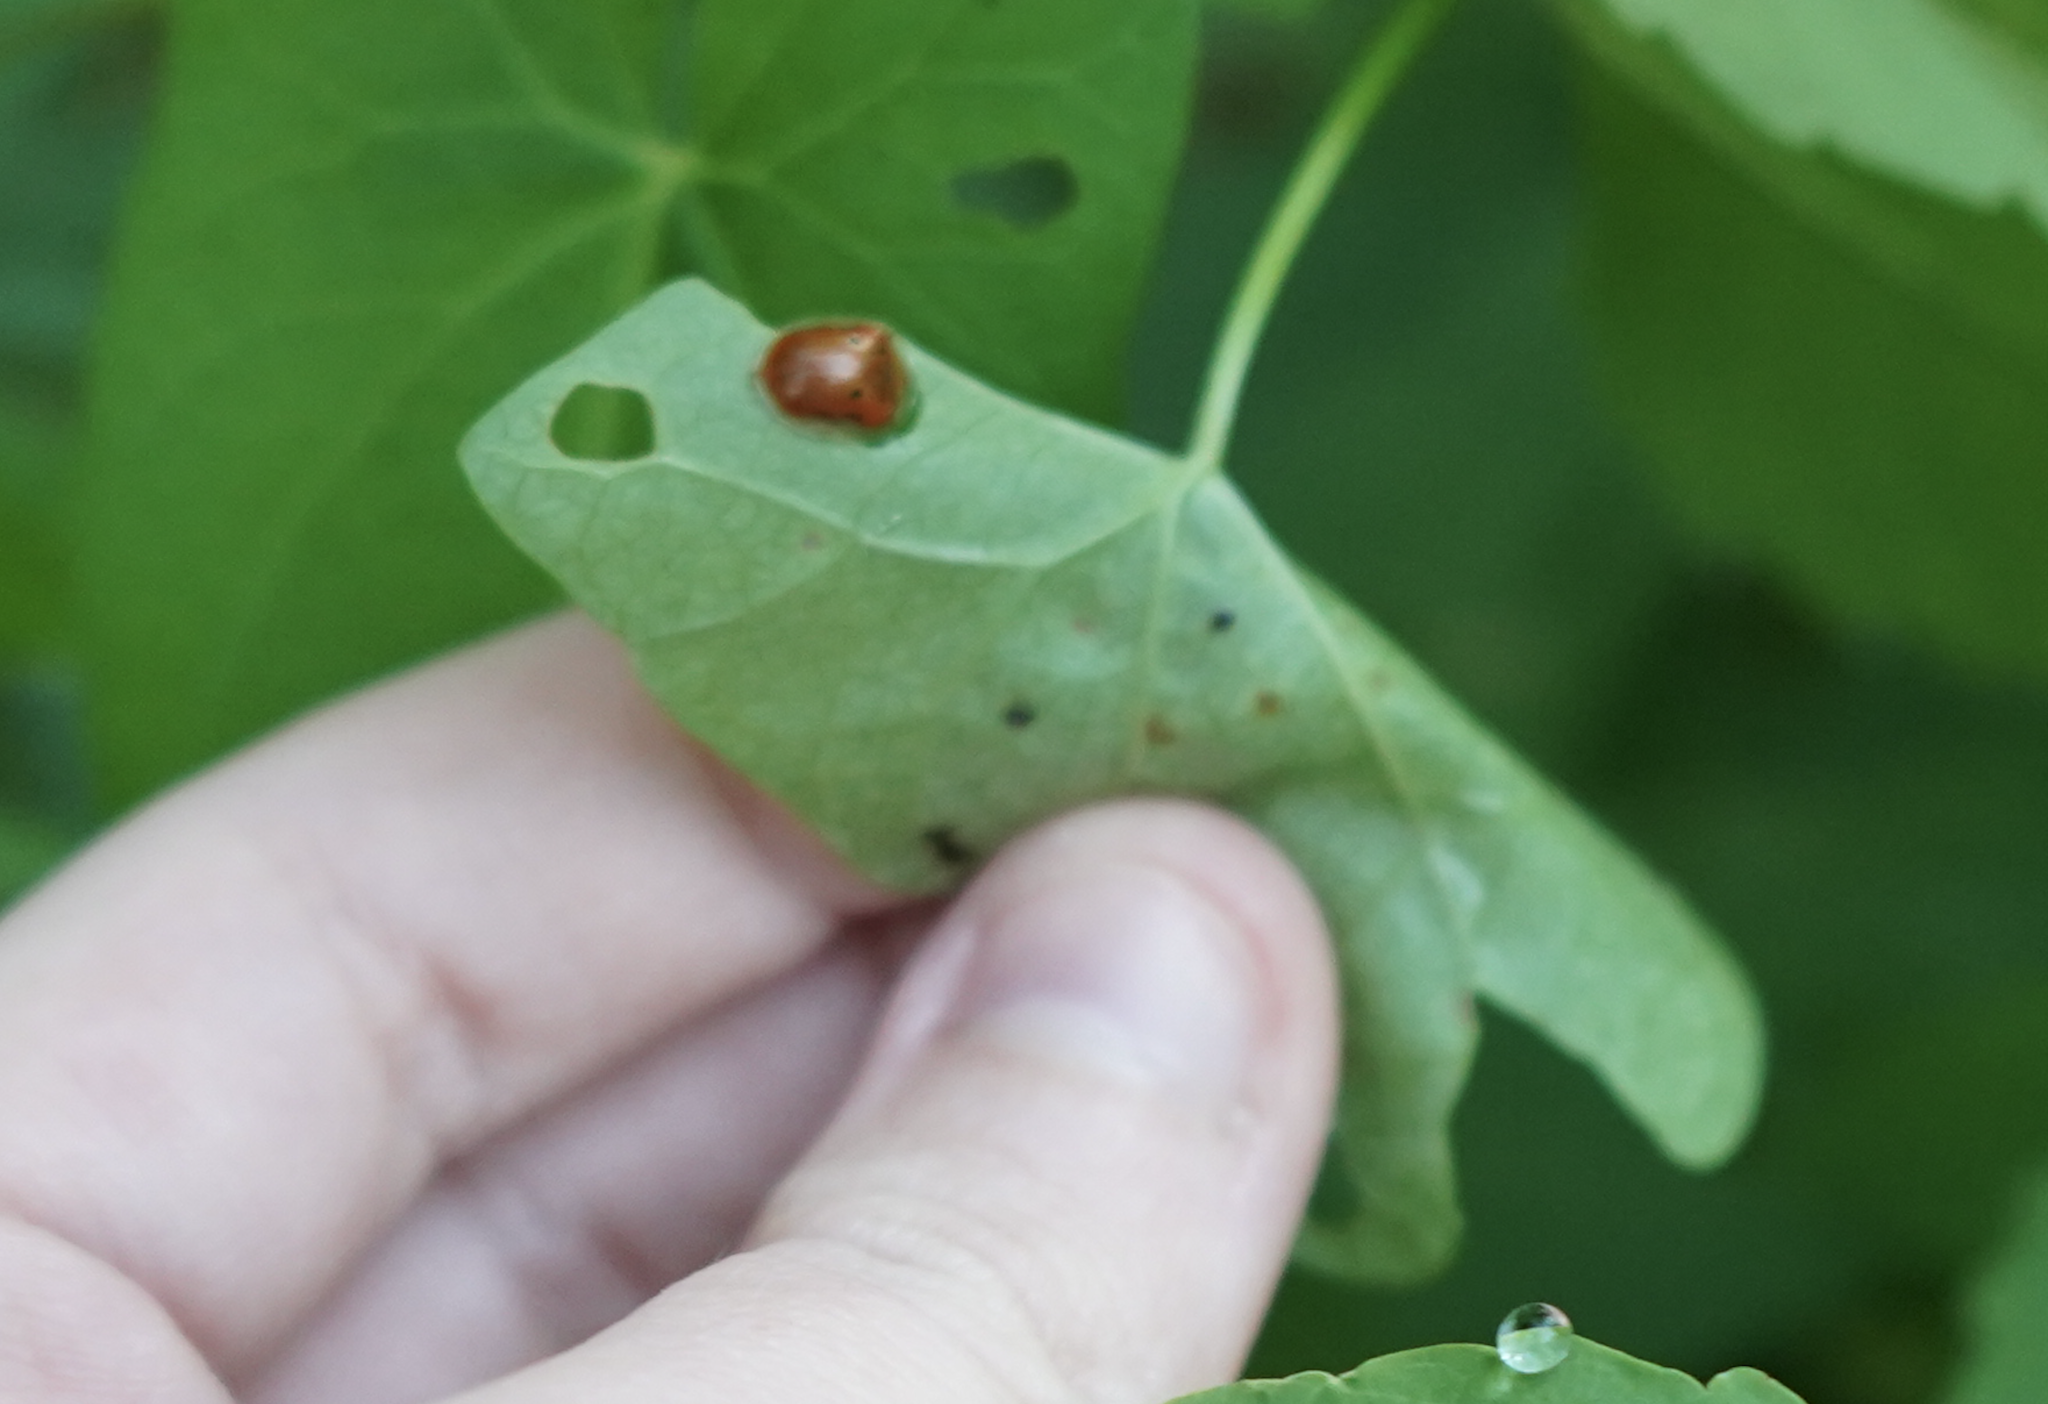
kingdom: Animalia
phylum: Arthropoda
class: Insecta
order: Coleoptera
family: Chrysomelidae
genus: Charidotella
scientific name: Charidotella sexpunctata
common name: Golden tortoise beetle
